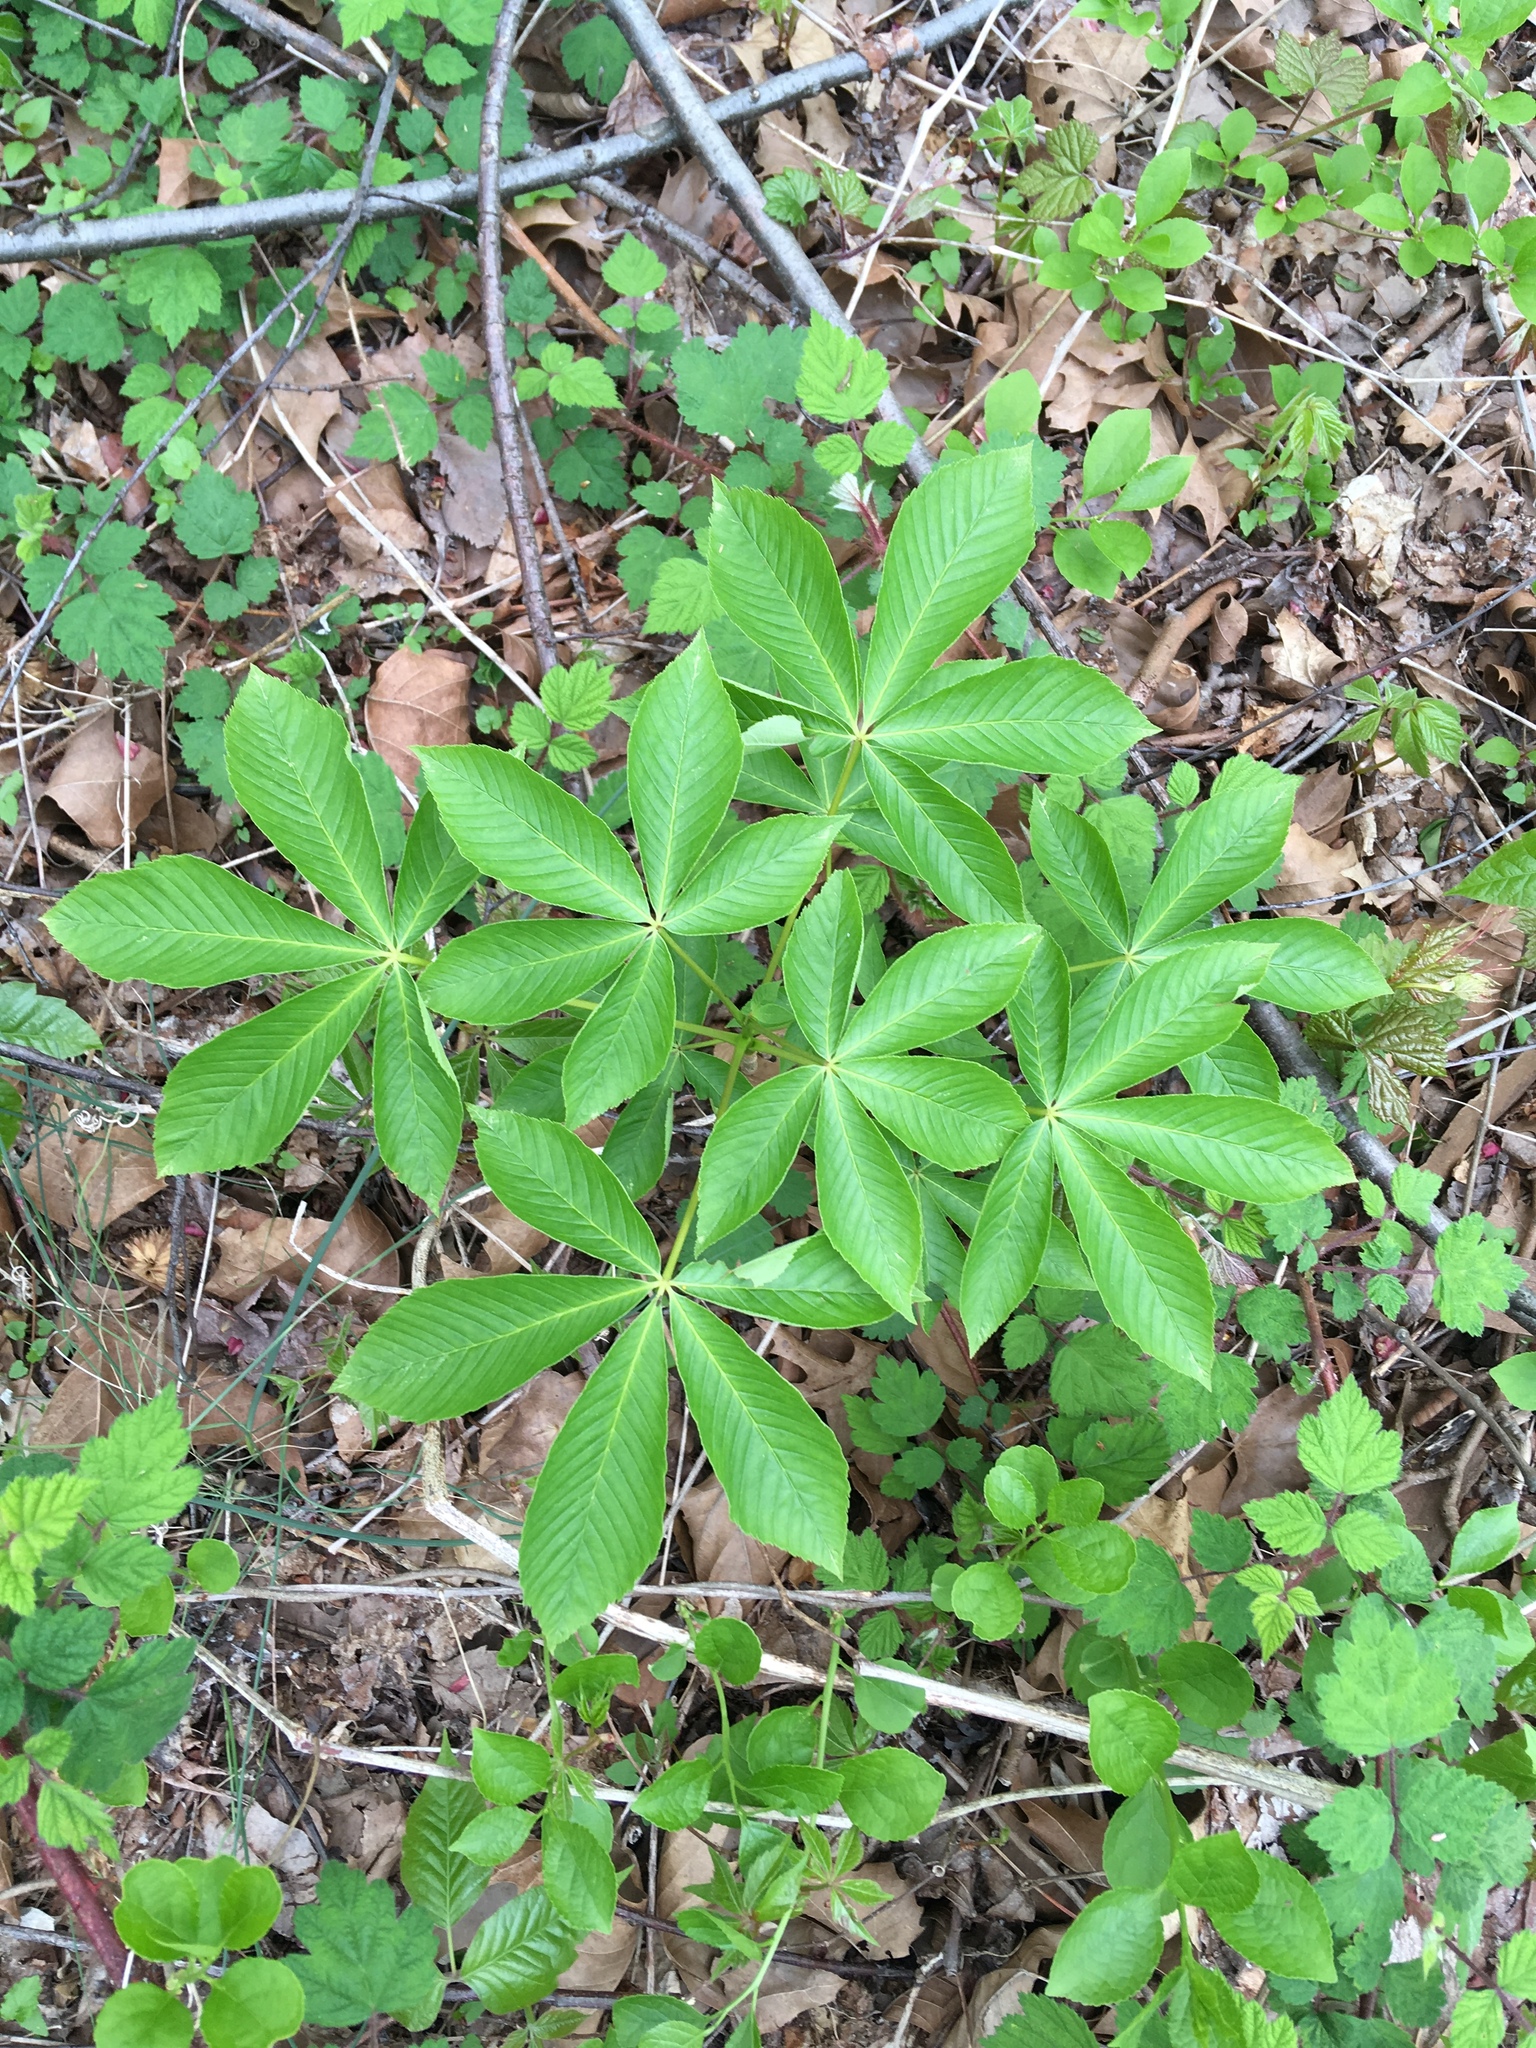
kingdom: Plantae
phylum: Tracheophyta
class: Magnoliopsida
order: Sapindales
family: Sapindaceae
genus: Aesculus
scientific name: Aesculus glabra
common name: Ohio buckeye
